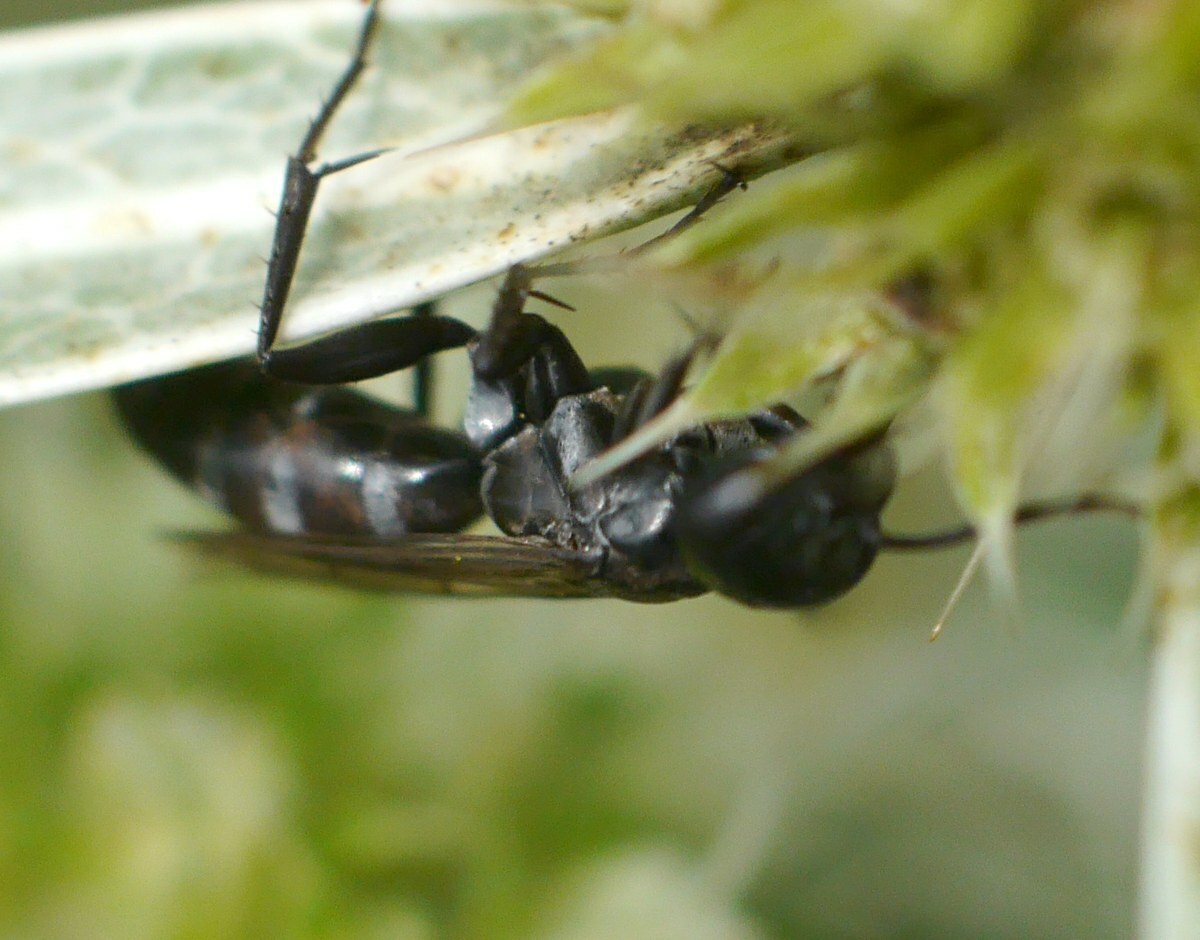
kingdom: Animalia
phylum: Arthropoda
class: Insecta
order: Hymenoptera
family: Pompilidae
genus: Amblyellus
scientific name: Amblyellus hasdrubal
